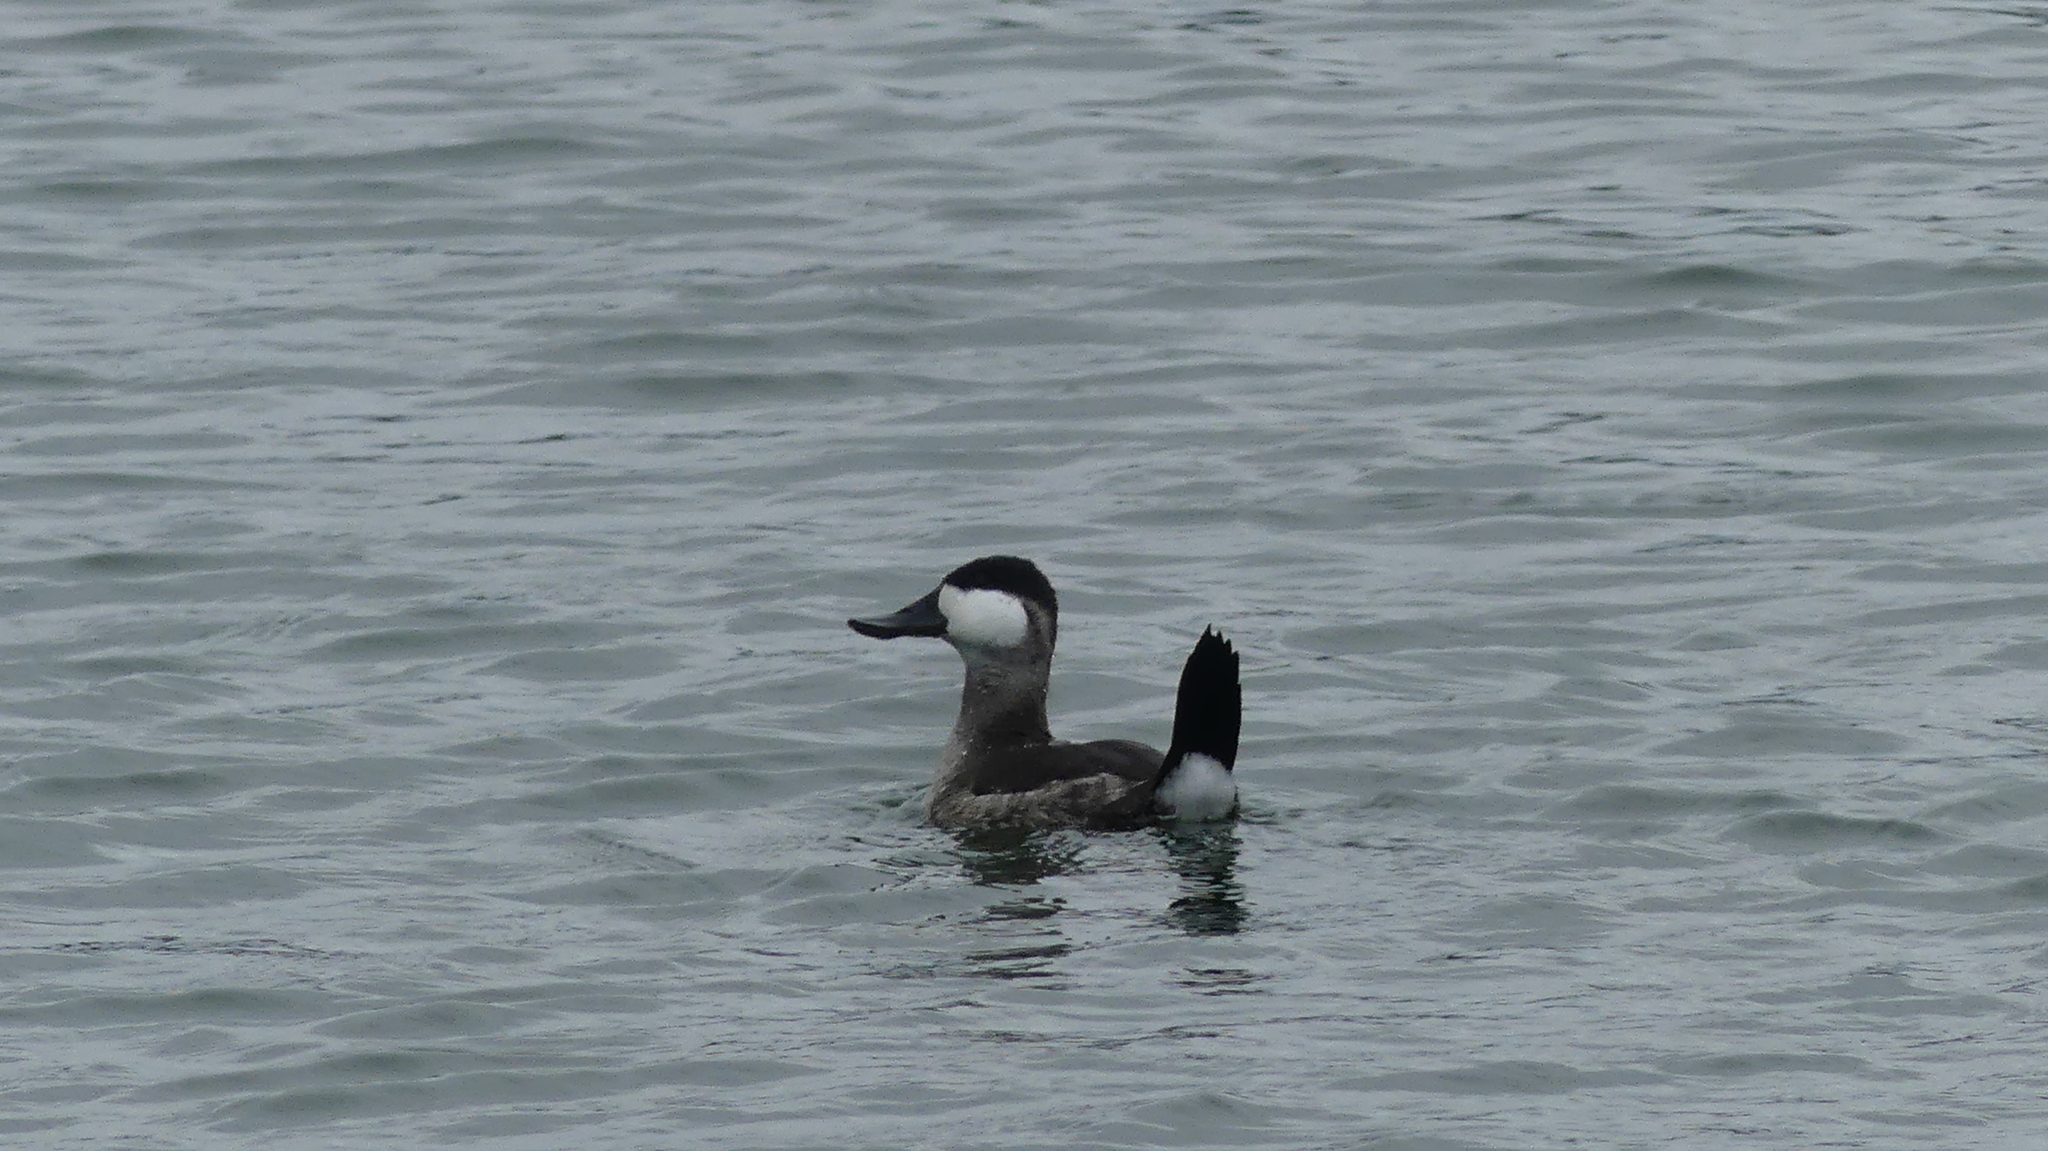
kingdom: Animalia
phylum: Chordata
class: Aves
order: Anseriformes
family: Anatidae
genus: Oxyura
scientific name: Oxyura jamaicensis
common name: Ruddy duck
